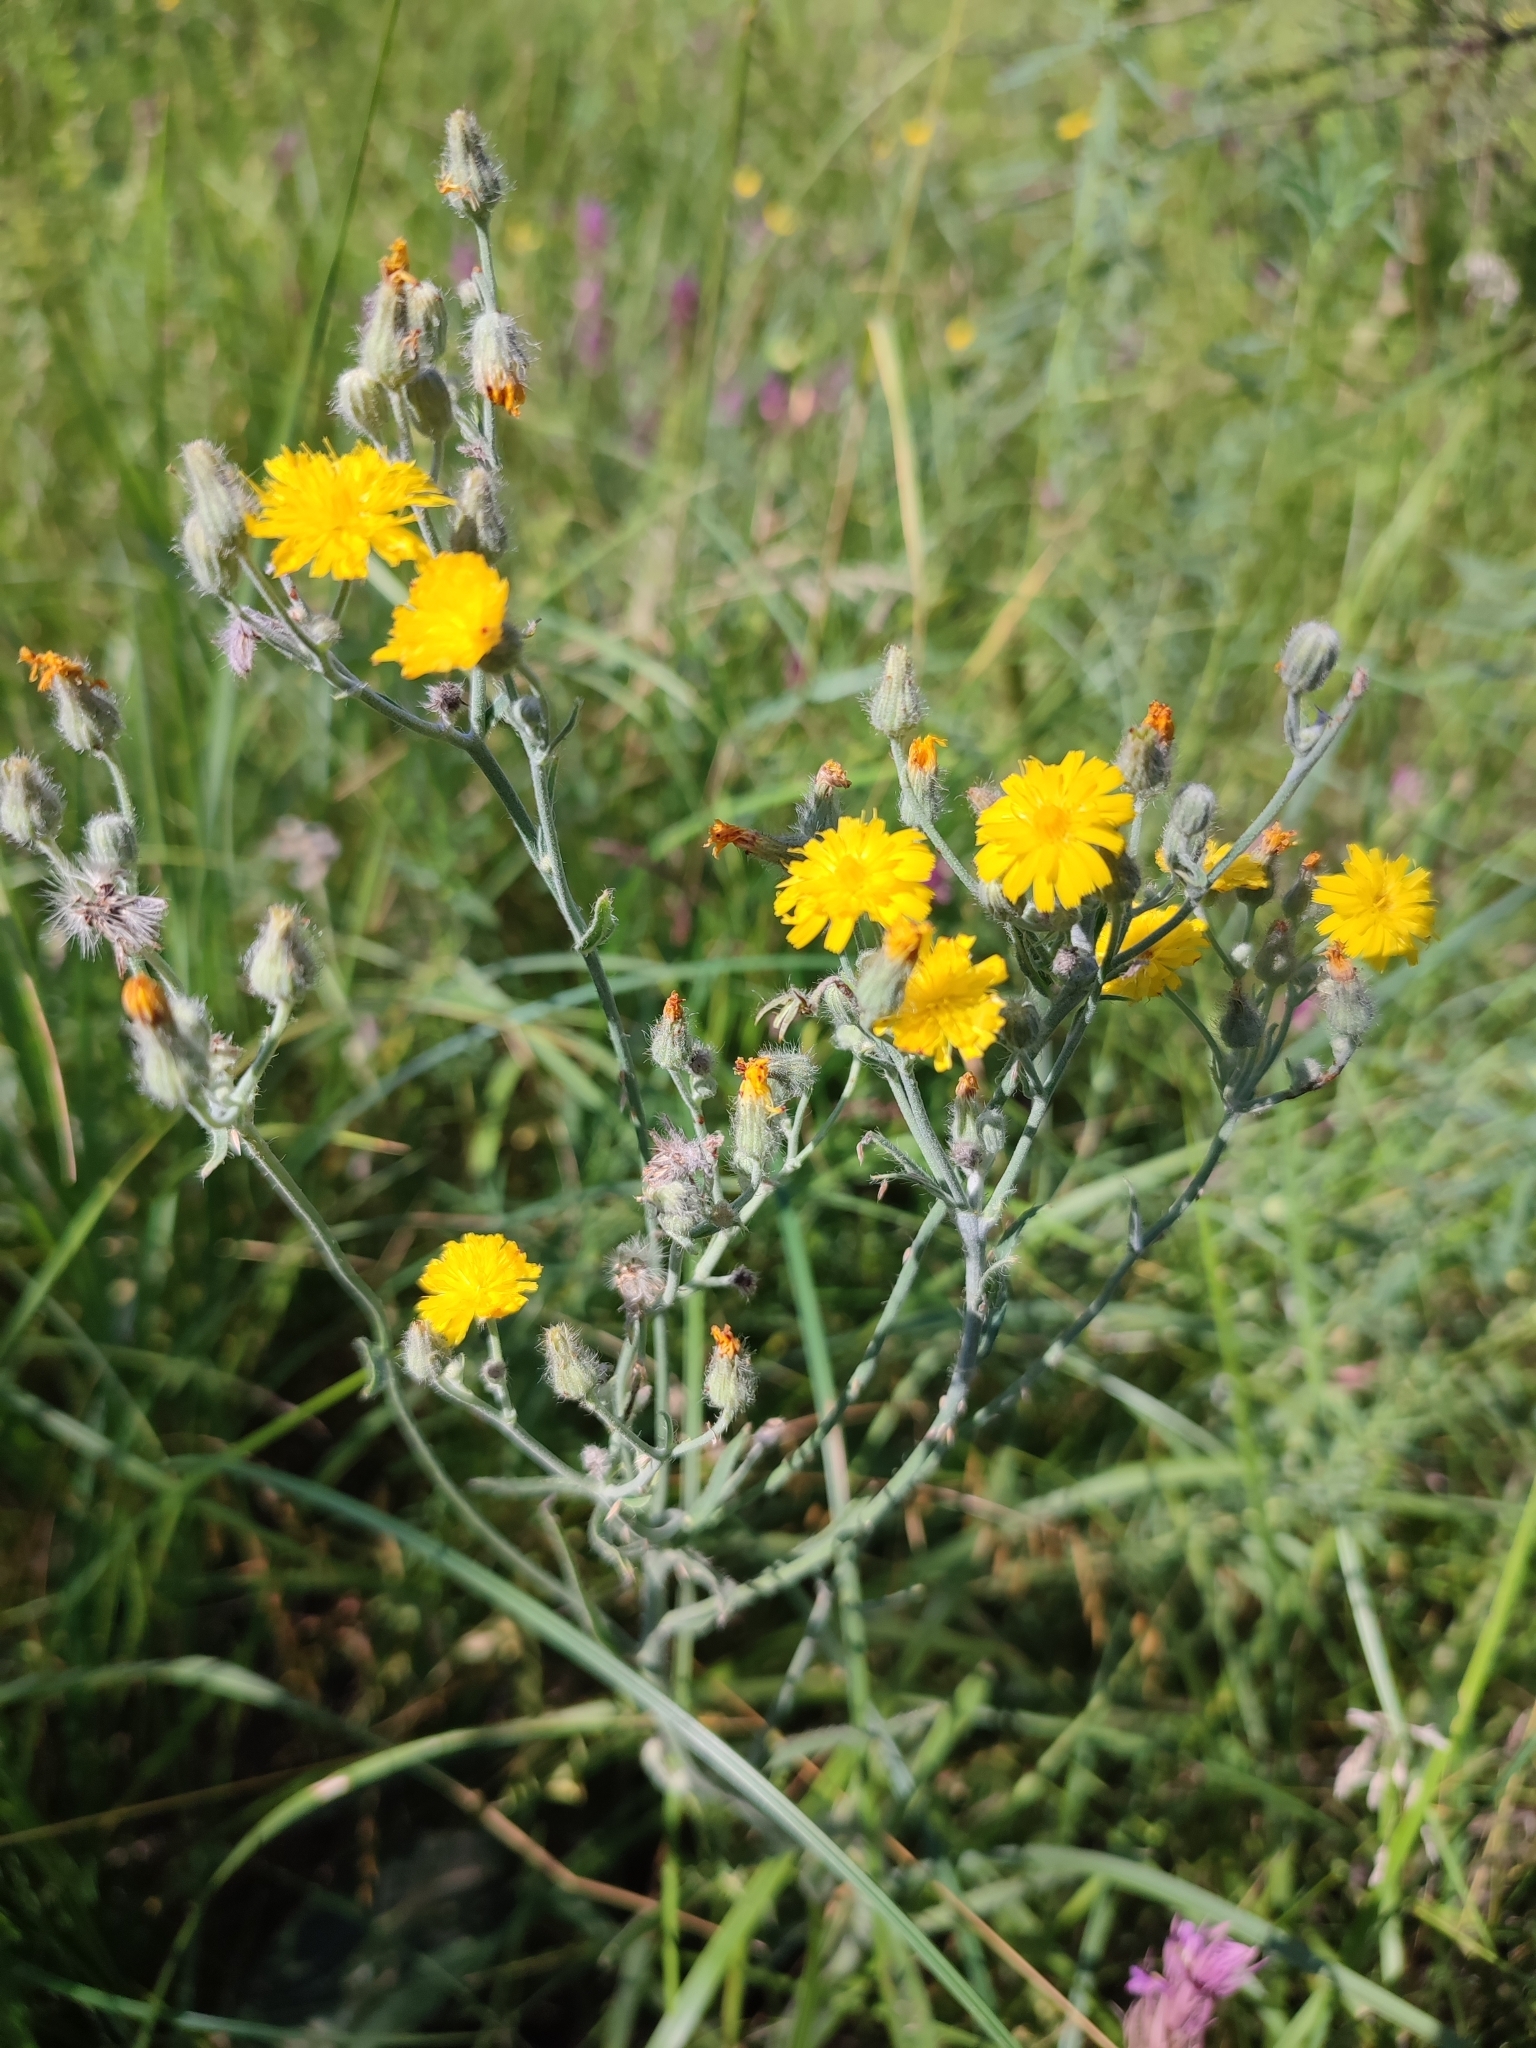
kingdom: Plantae
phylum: Tracheophyta
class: Magnoliopsida
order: Asterales
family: Asteraceae
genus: Pilosella
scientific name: Pilosella echioides
